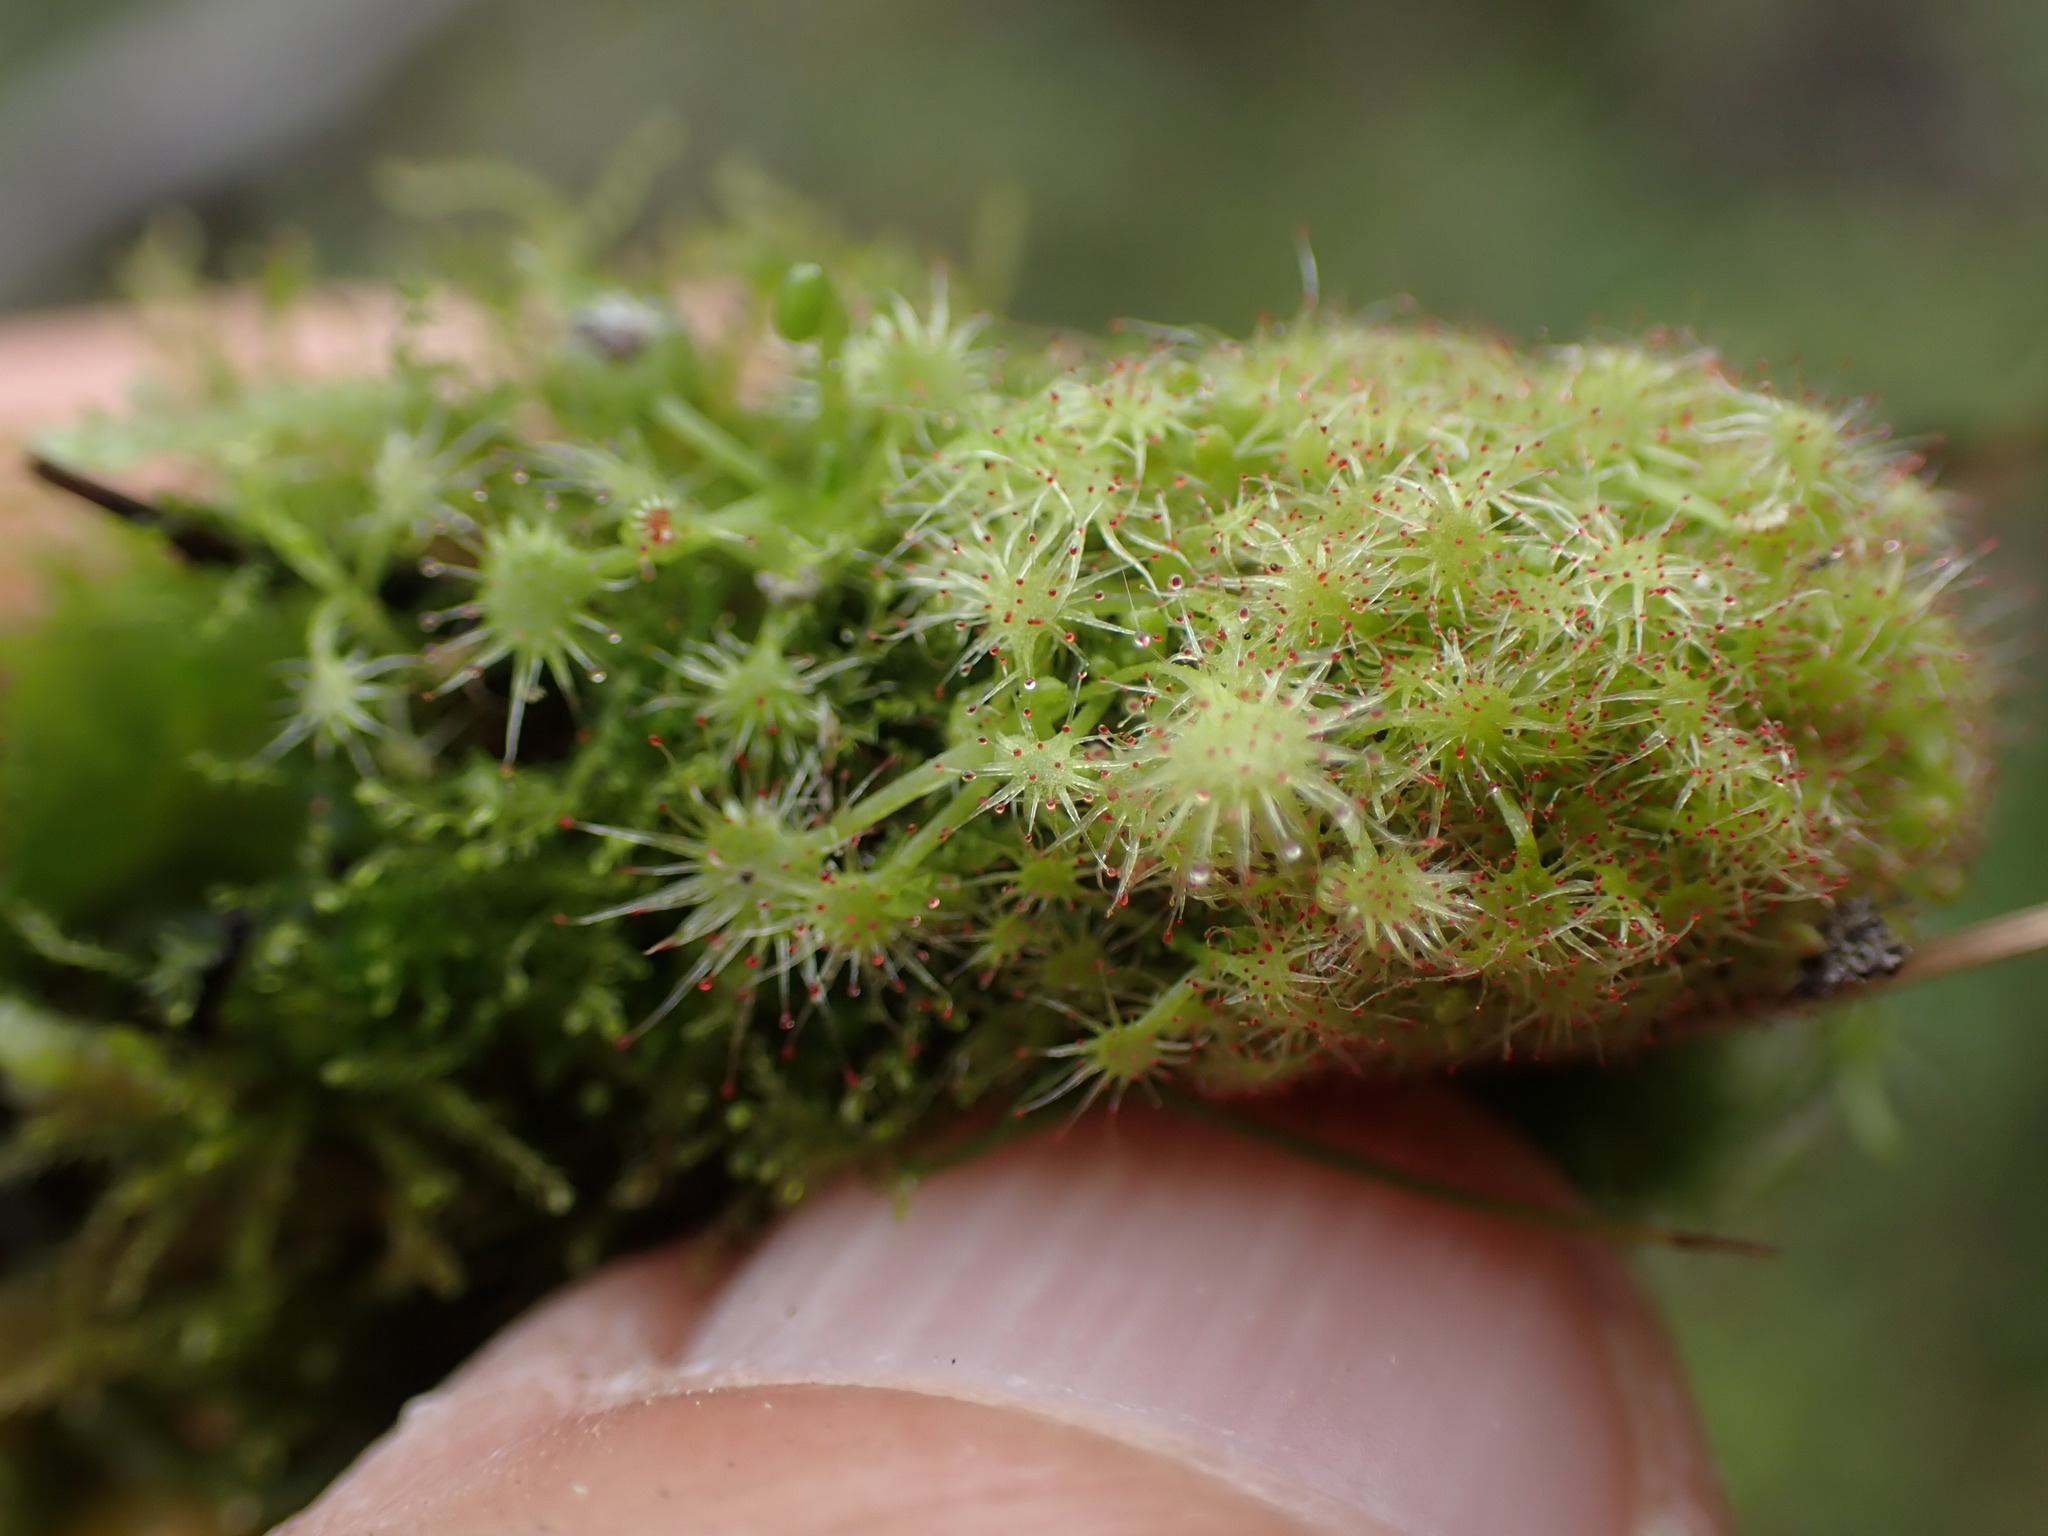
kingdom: Plantae
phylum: Tracheophyta
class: Magnoliopsida
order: Caryophyllales
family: Droseraceae
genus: Drosera
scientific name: Drosera rotundifolia
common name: Round-leaved sundew
